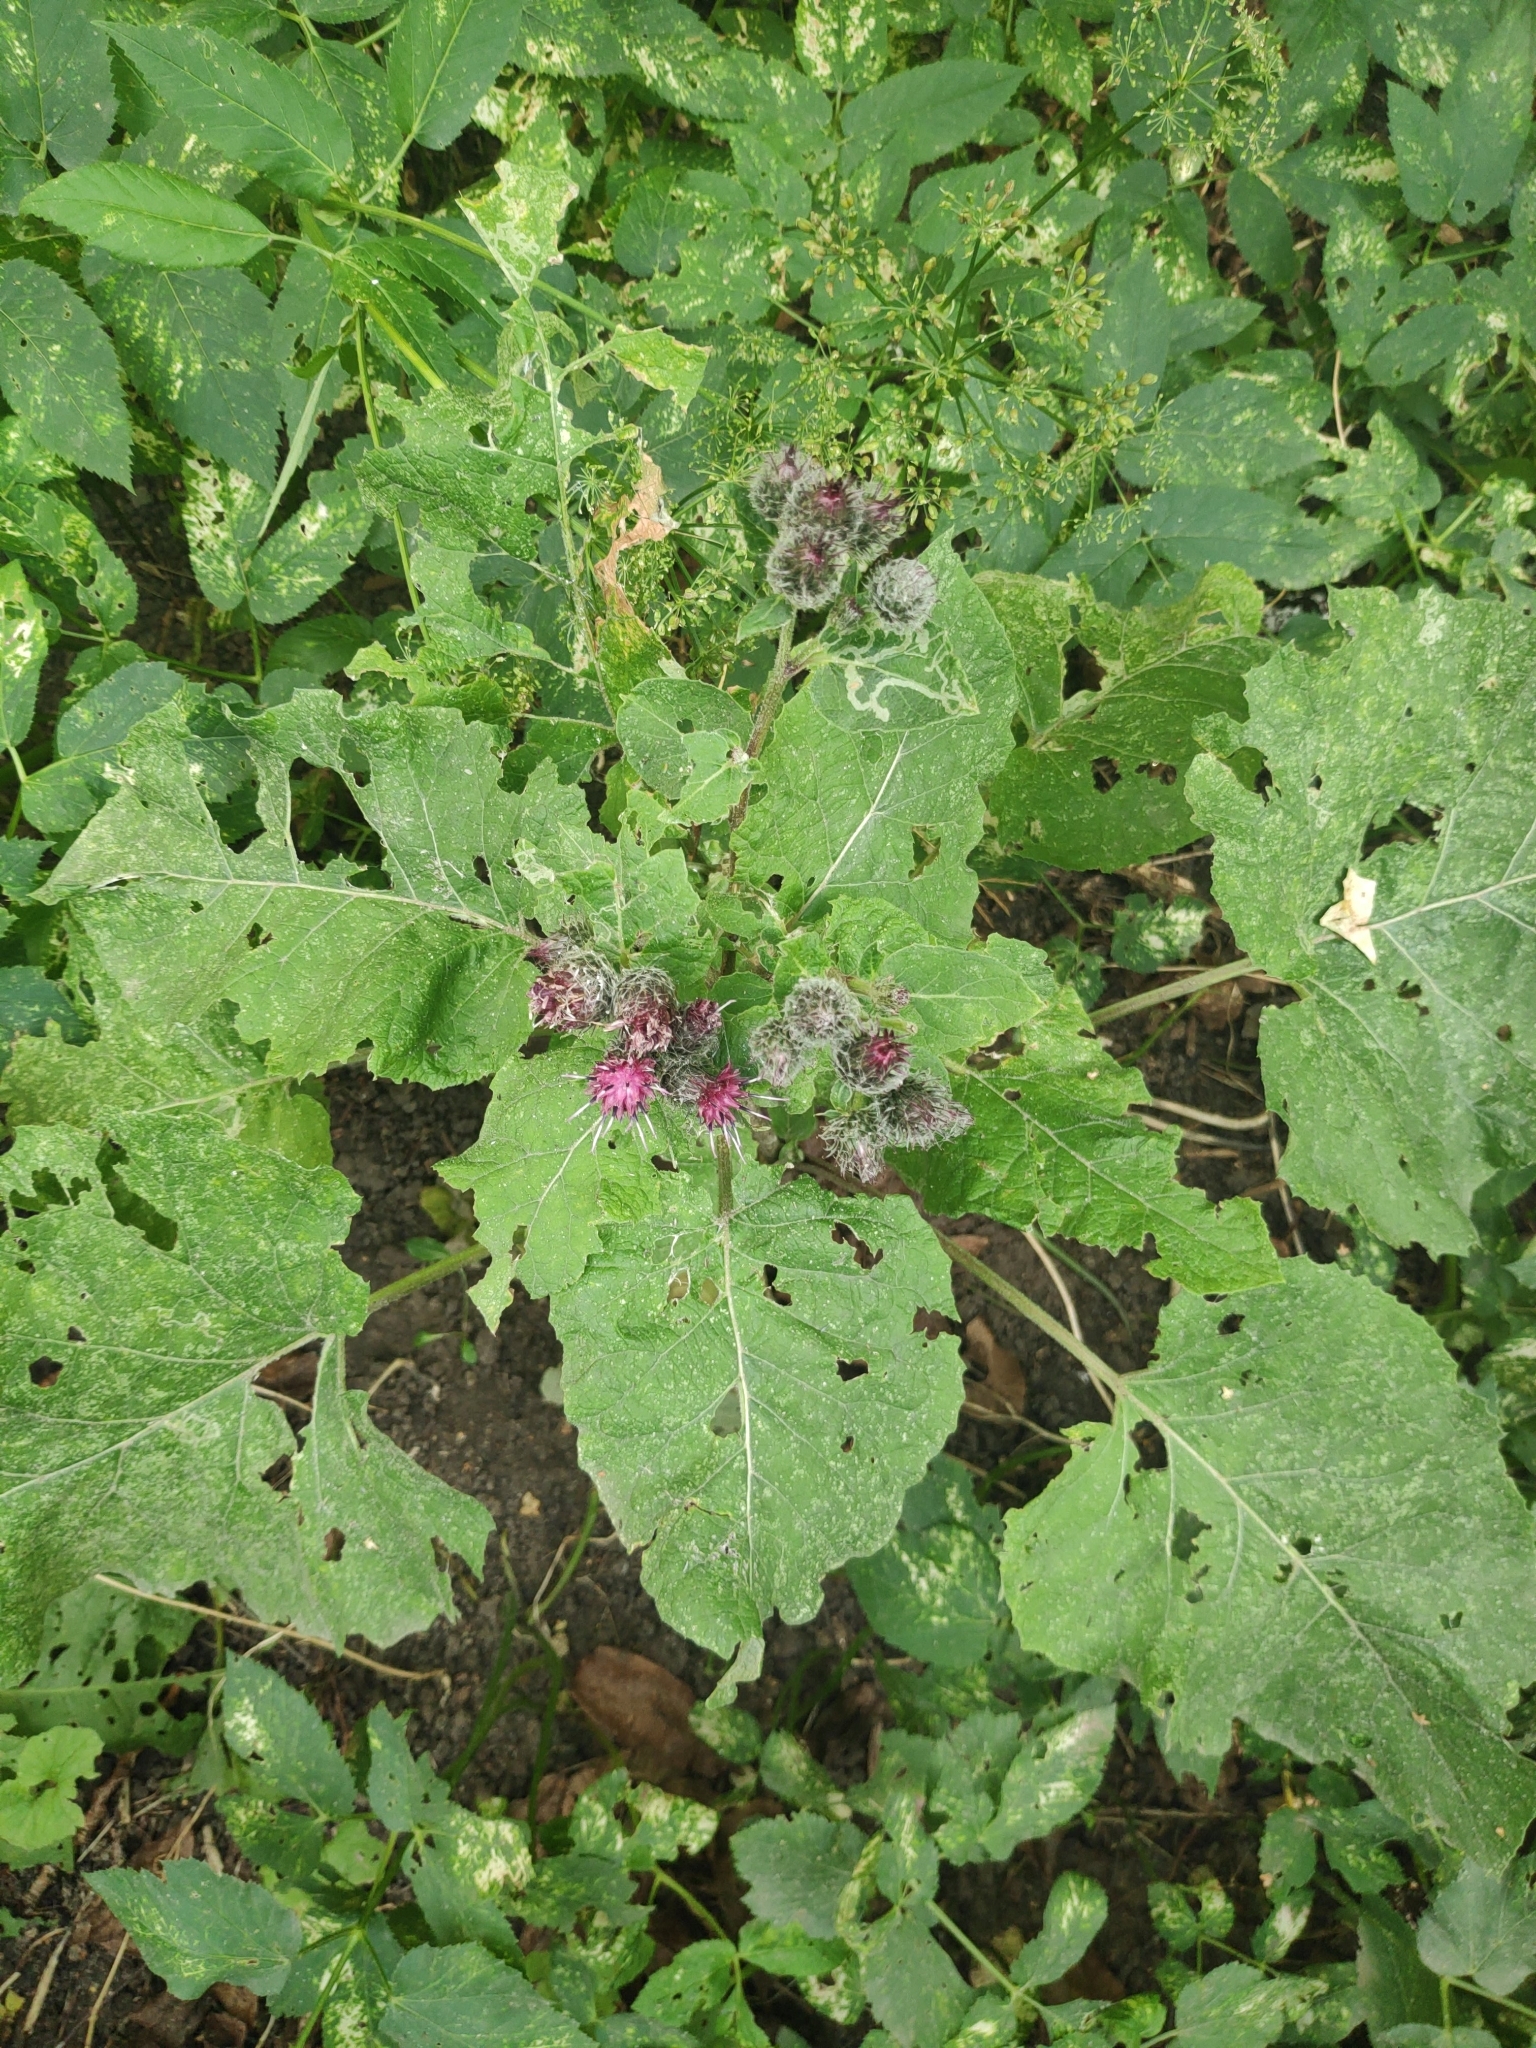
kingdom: Plantae
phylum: Tracheophyta
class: Magnoliopsida
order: Asterales
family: Asteraceae
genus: Arctium
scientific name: Arctium tomentosum
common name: Woolly burdock
